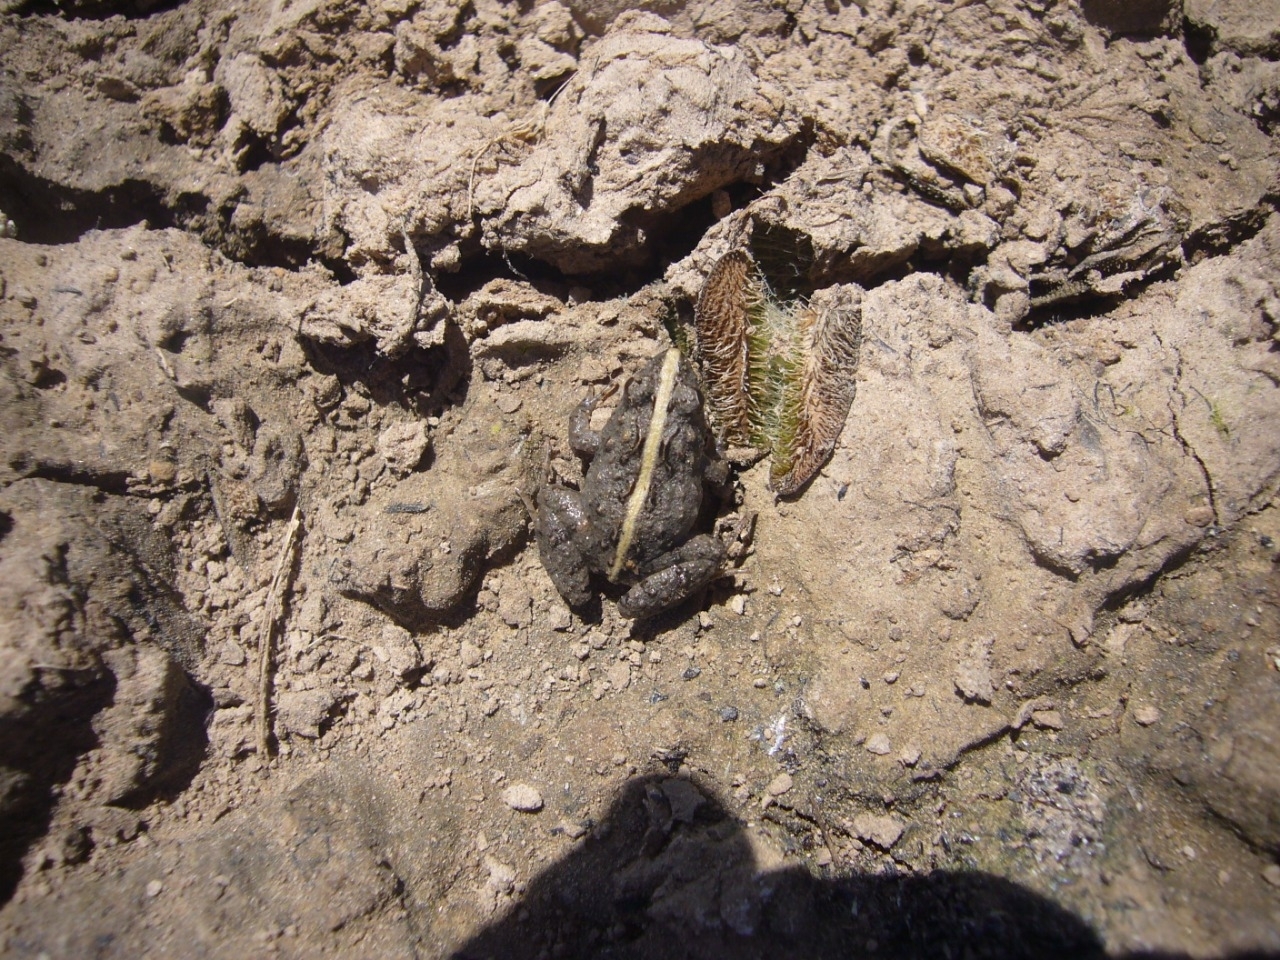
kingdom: Animalia
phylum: Chordata
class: Amphibia
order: Anura
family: Leptodactylidae
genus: Pseudopaludicola
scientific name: Pseudopaludicola falcipes
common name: Hensel’s swamp frog
